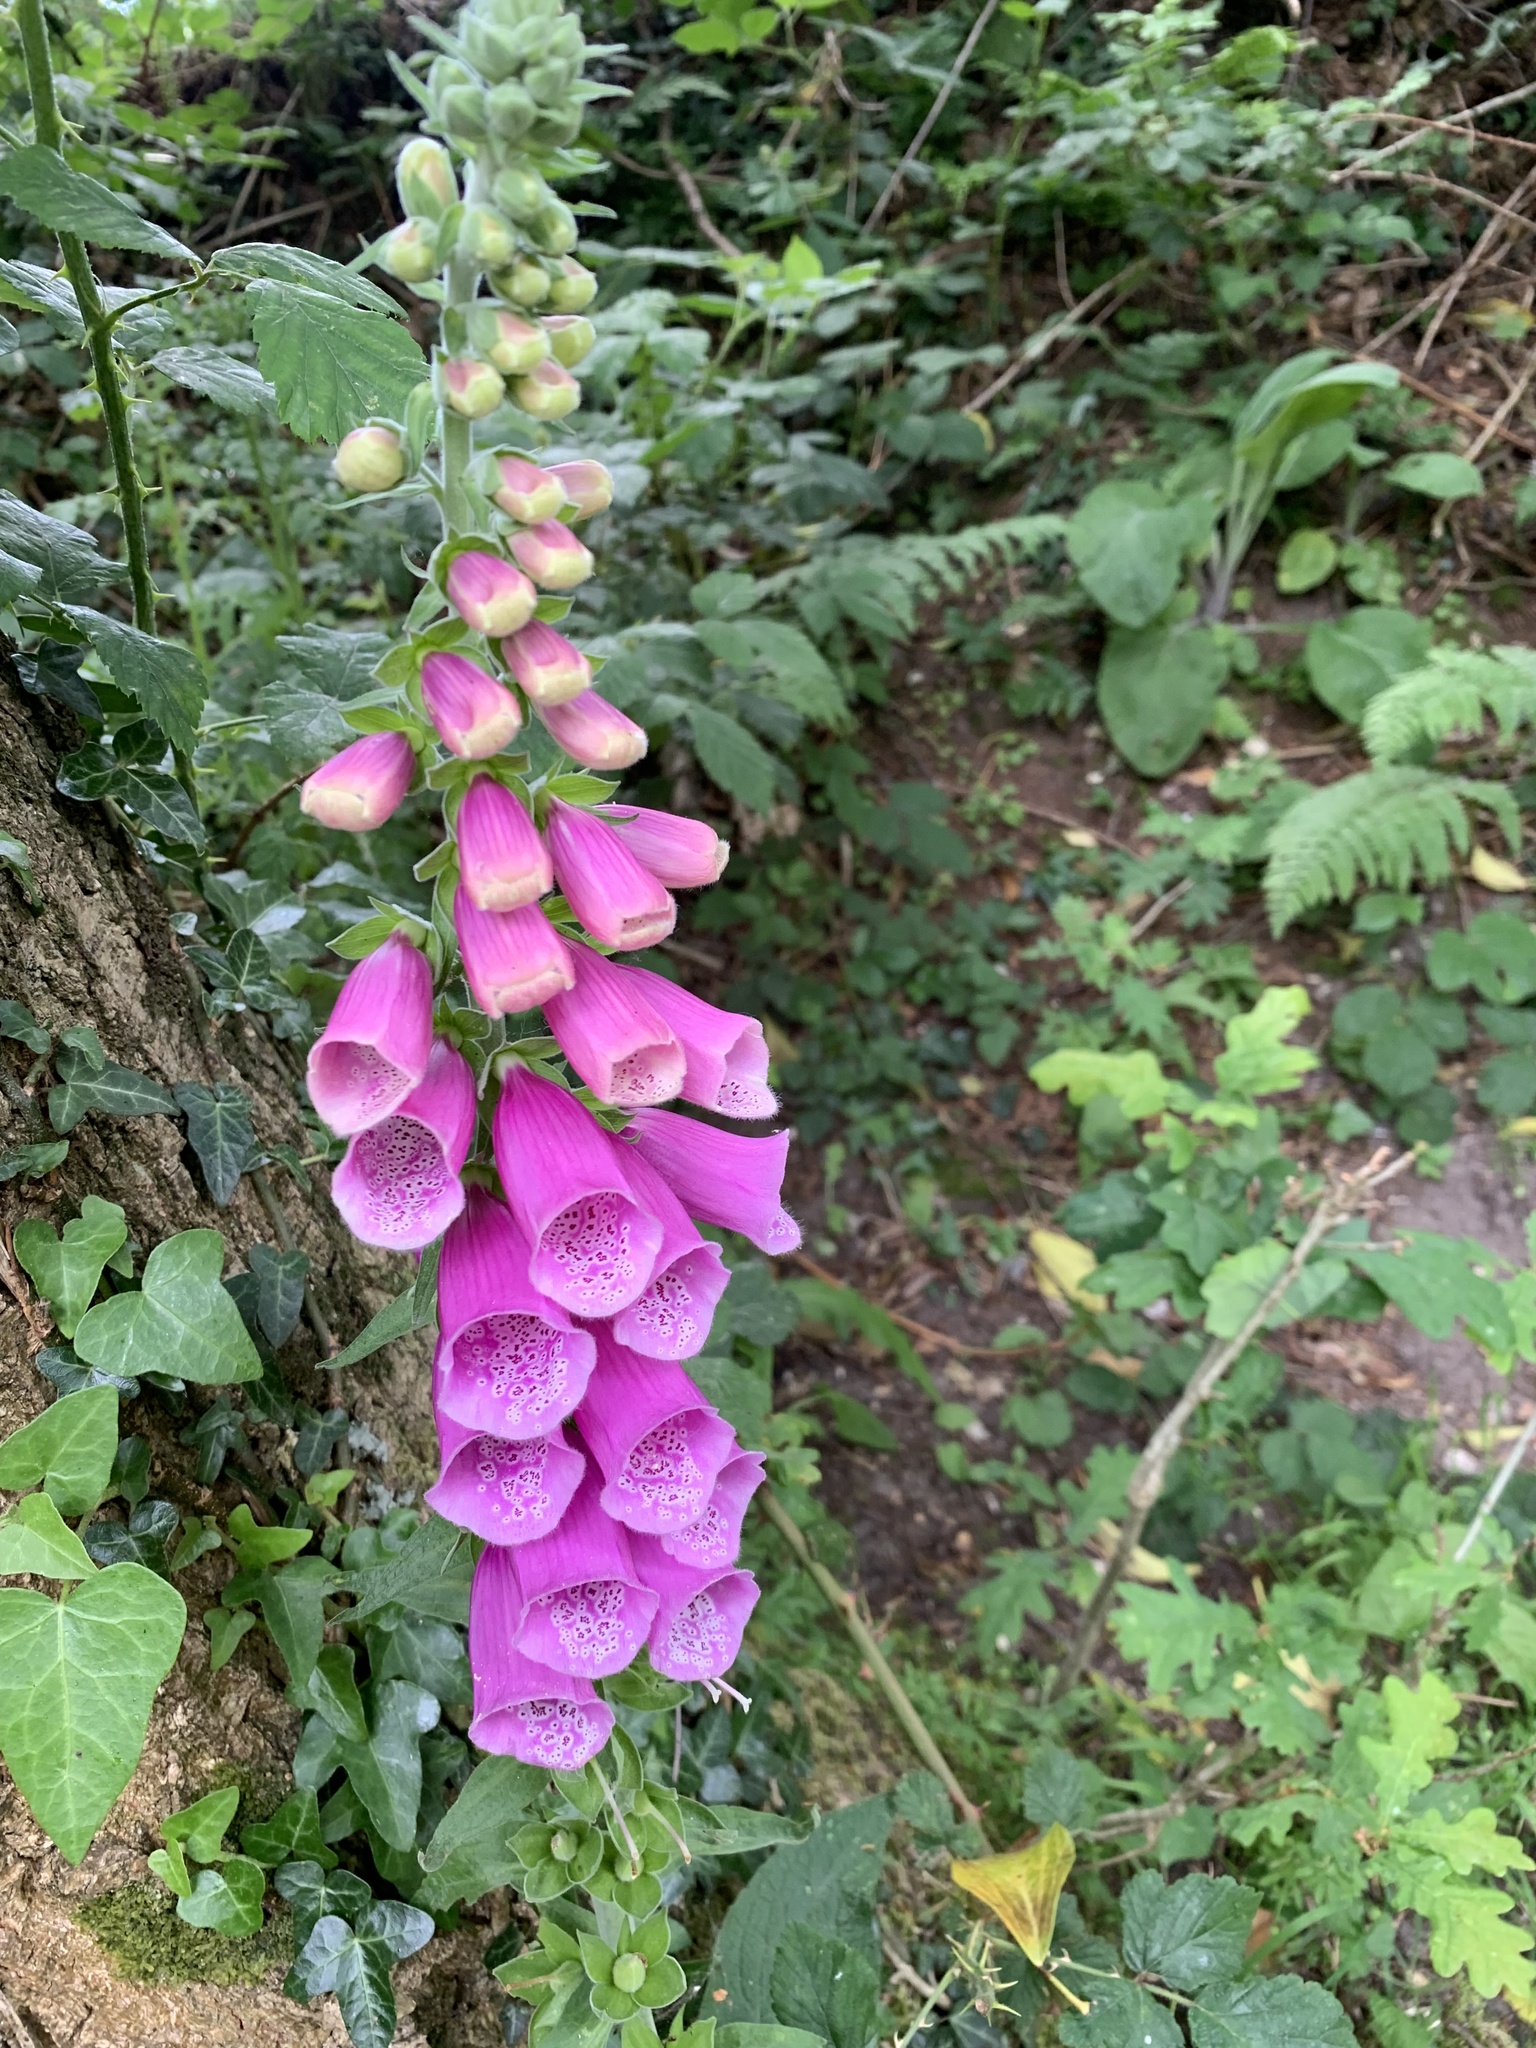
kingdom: Plantae
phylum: Tracheophyta
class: Magnoliopsida
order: Lamiales
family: Plantaginaceae
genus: Digitalis
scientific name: Digitalis purpurea
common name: Foxglove
